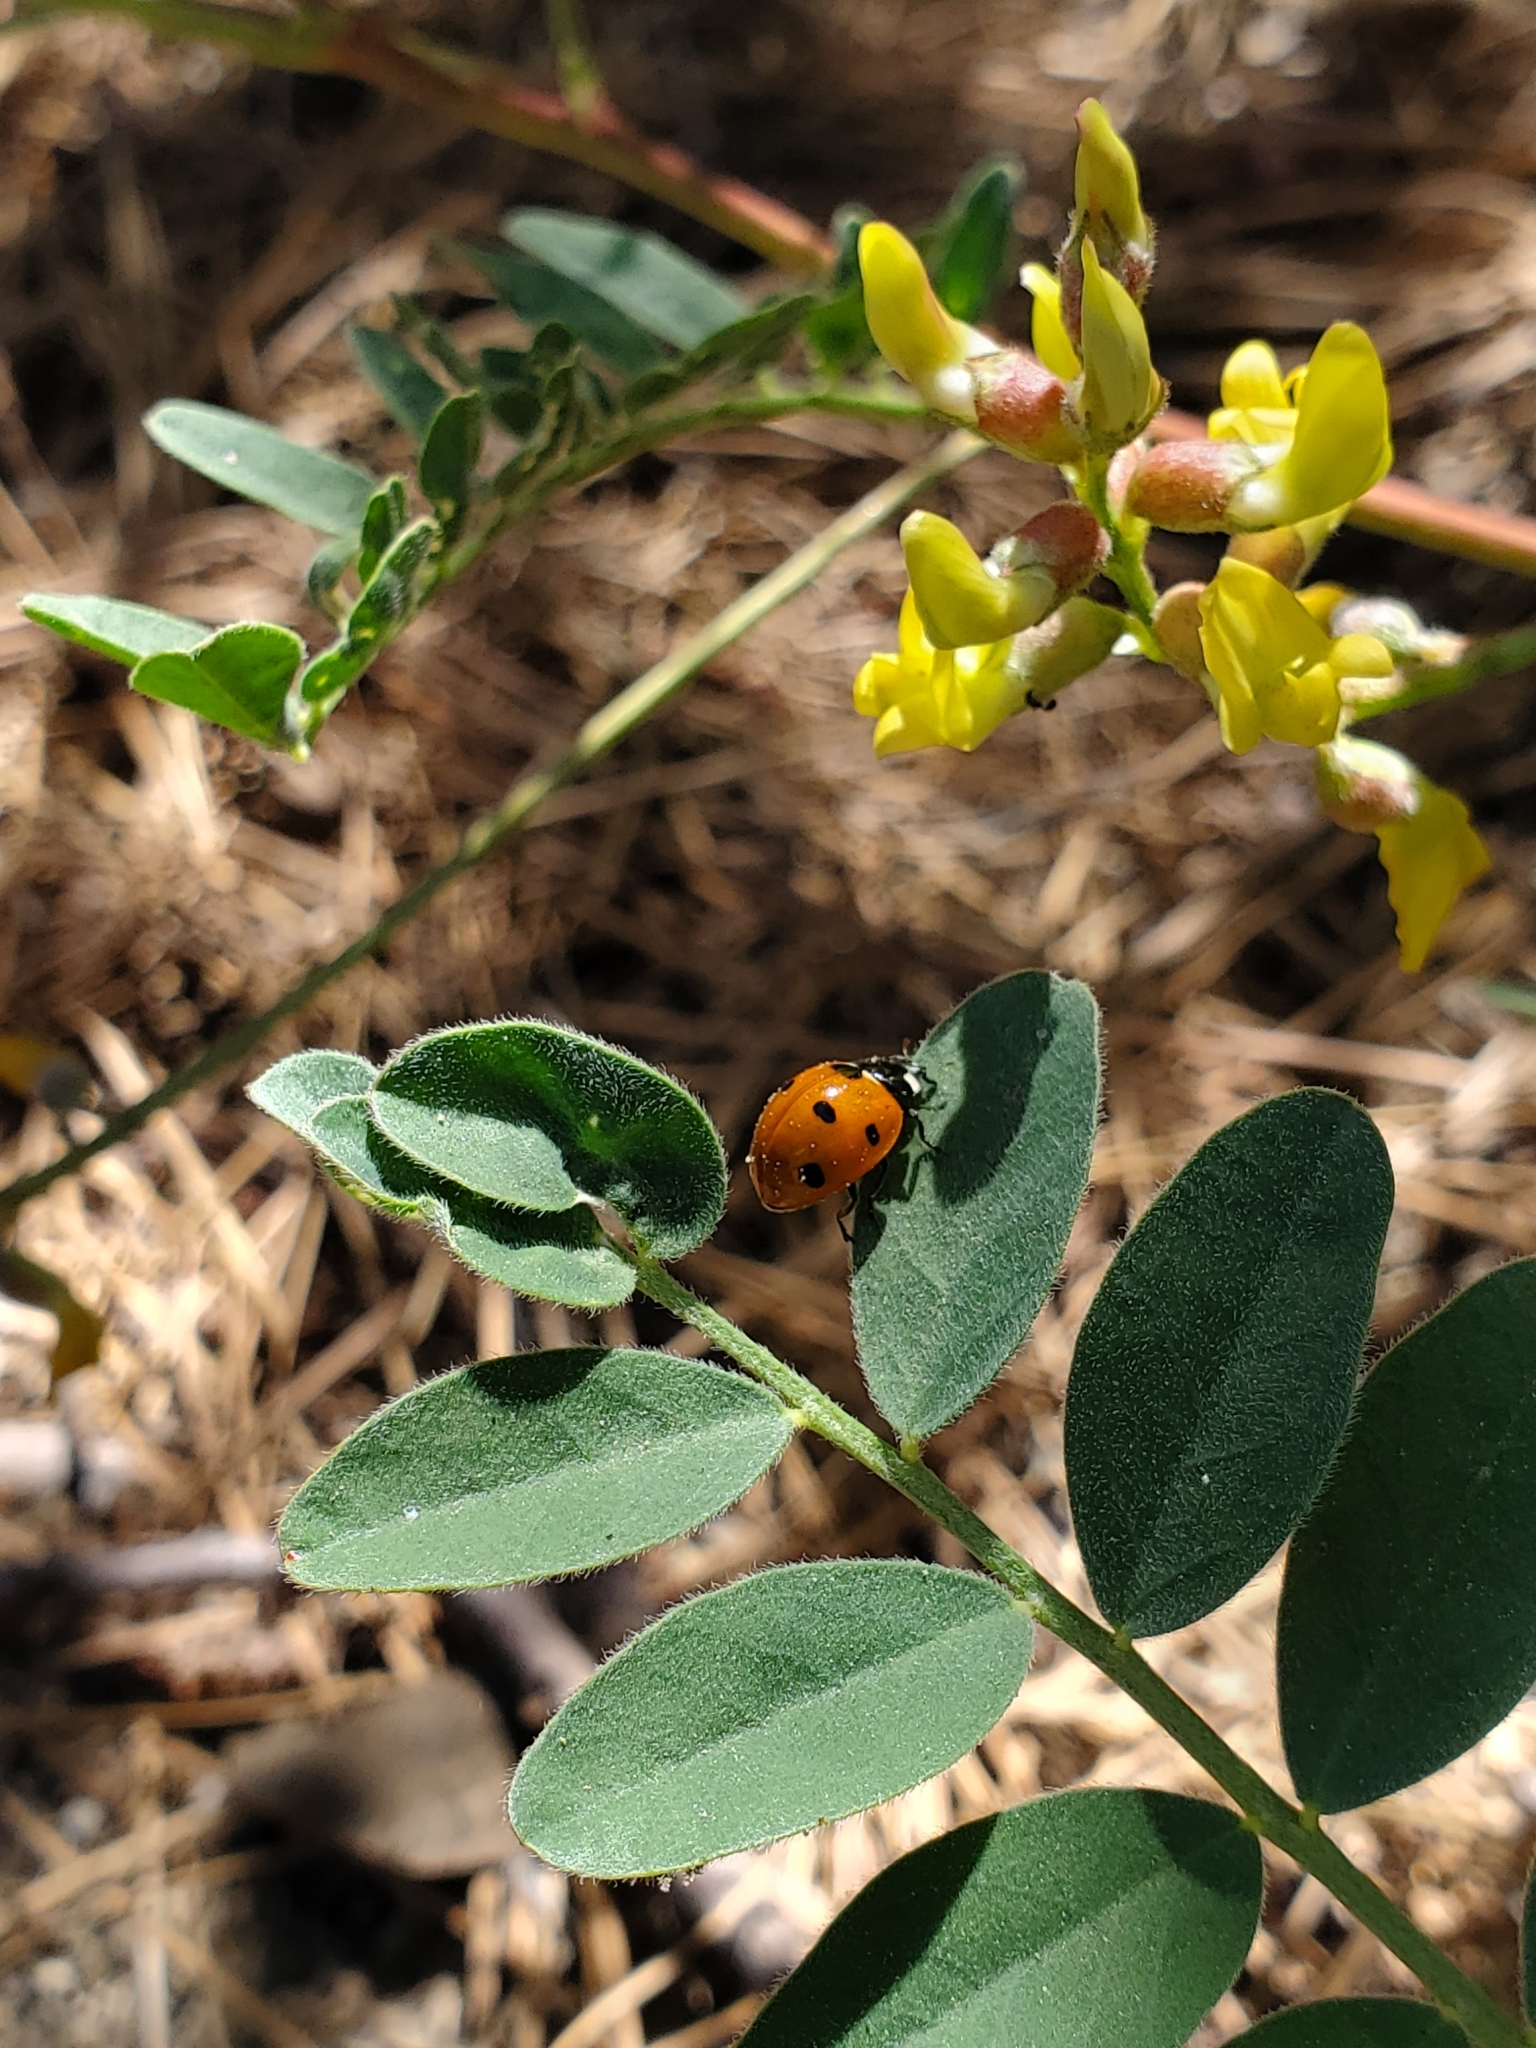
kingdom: Animalia
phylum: Arthropoda
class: Insecta
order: Coleoptera
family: Coccinellidae
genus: Coccinella
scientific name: Coccinella septempunctata
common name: Sevenspotted lady beetle
